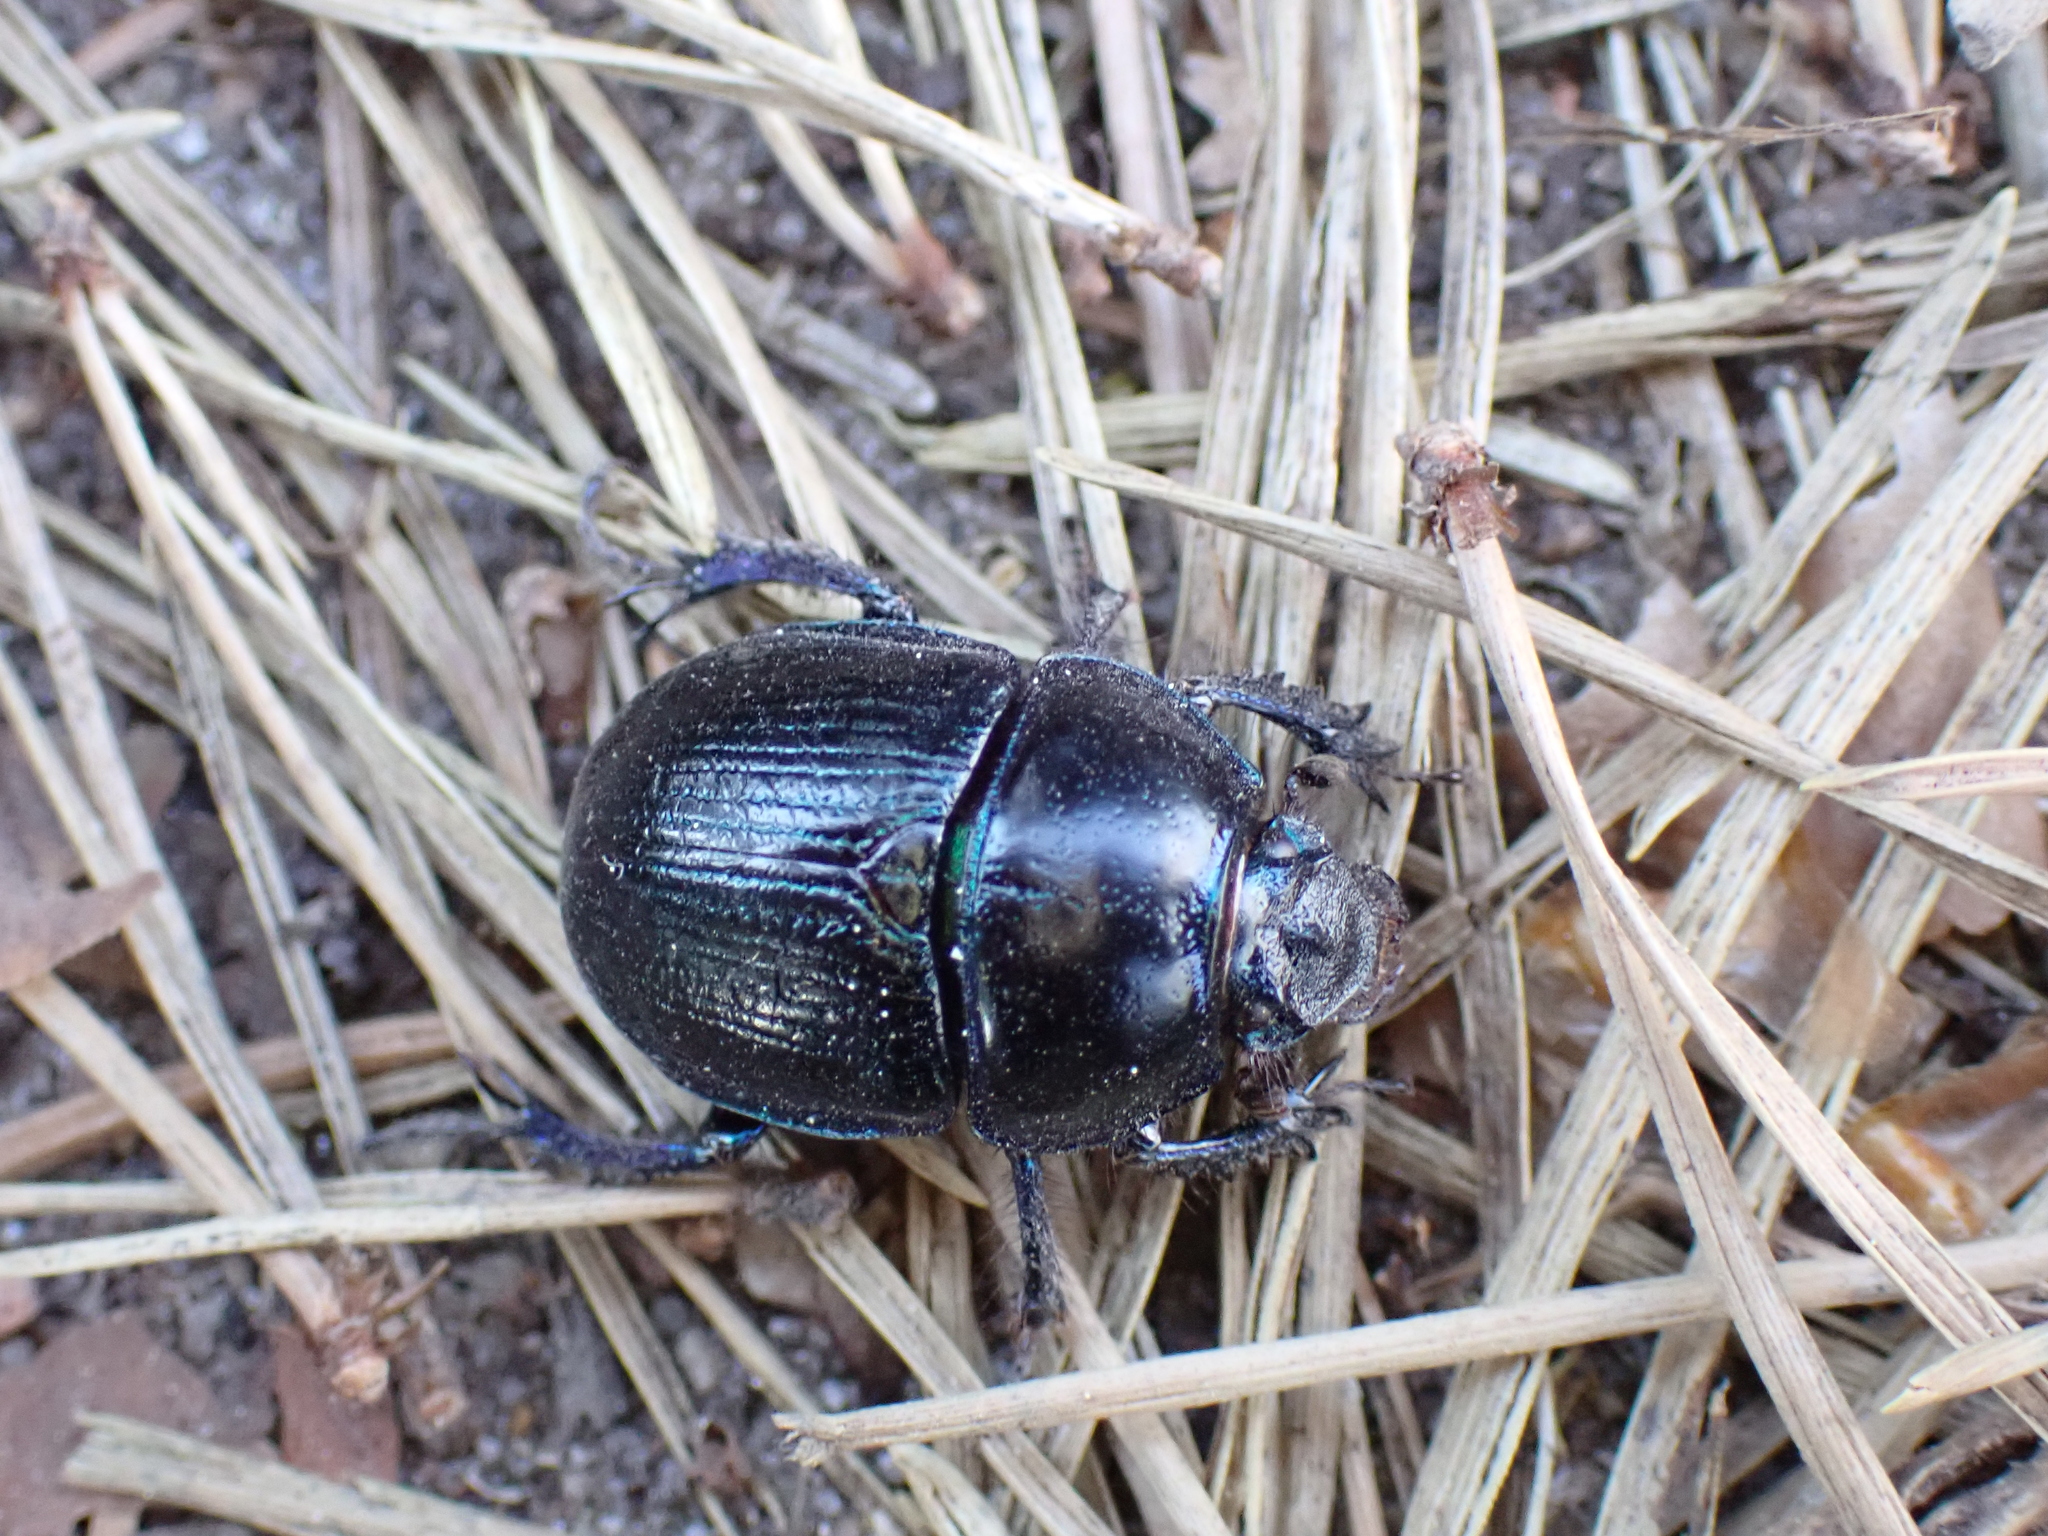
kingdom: Animalia
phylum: Arthropoda
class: Insecta
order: Coleoptera
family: Geotrupidae
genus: Anoplotrupes
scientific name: Anoplotrupes stercorosus
